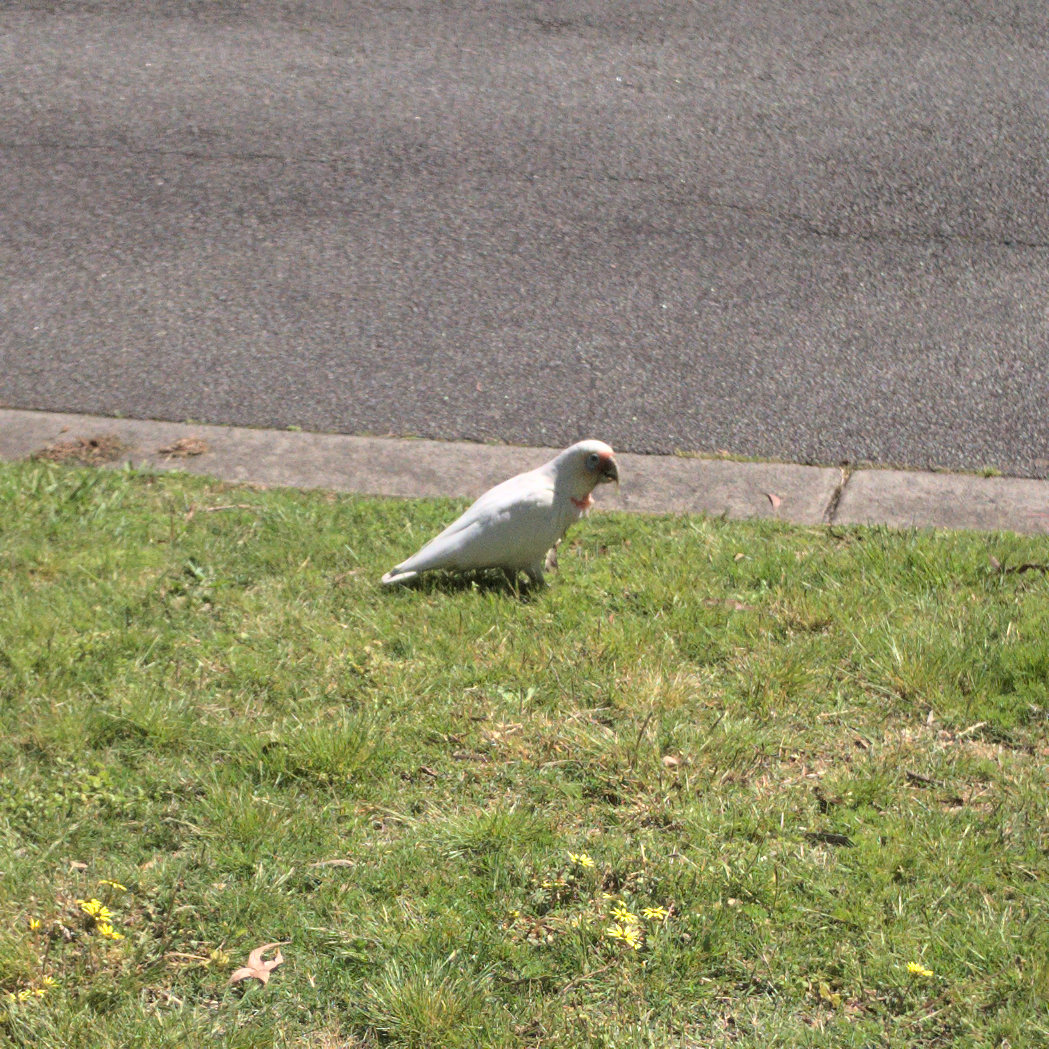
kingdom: Animalia
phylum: Chordata
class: Aves
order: Psittaciformes
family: Psittacidae
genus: Cacatua
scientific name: Cacatua tenuirostris
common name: Long-billed corella
